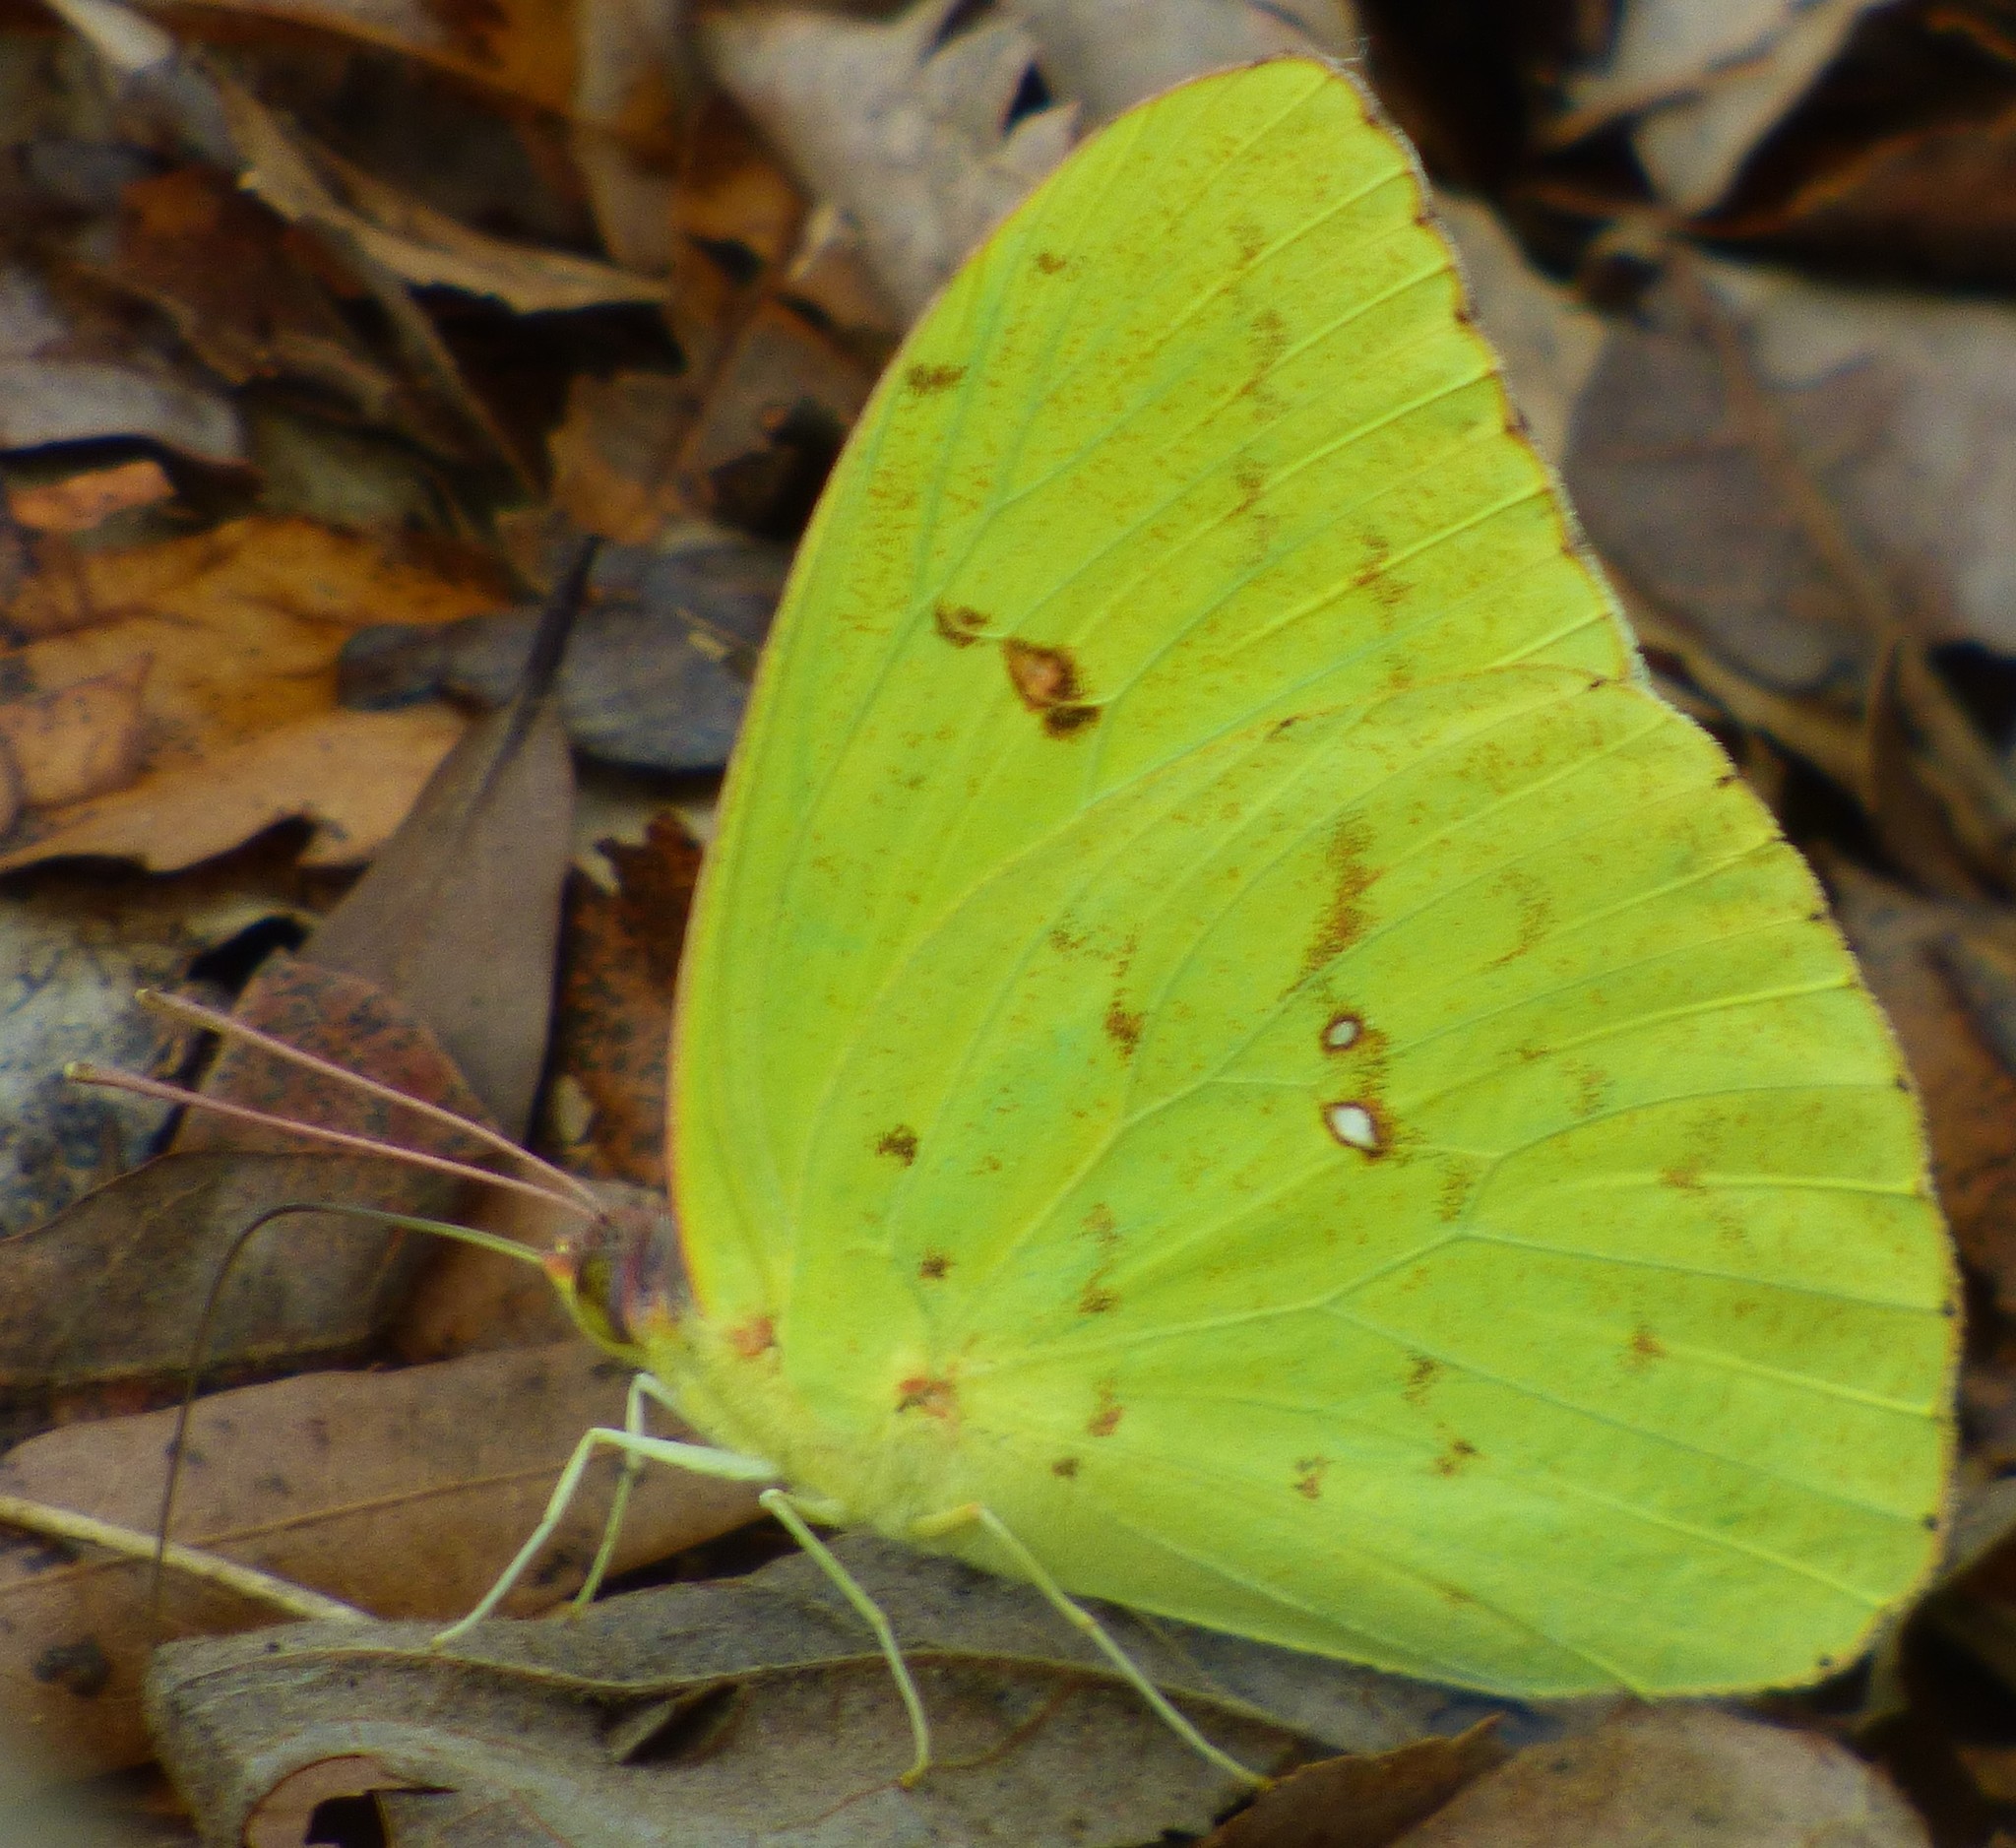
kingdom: Animalia
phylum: Arthropoda
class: Insecta
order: Lepidoptera
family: Pieridae
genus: Phoebis
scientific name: Phoebis sennae
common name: Cloudless sulphur
